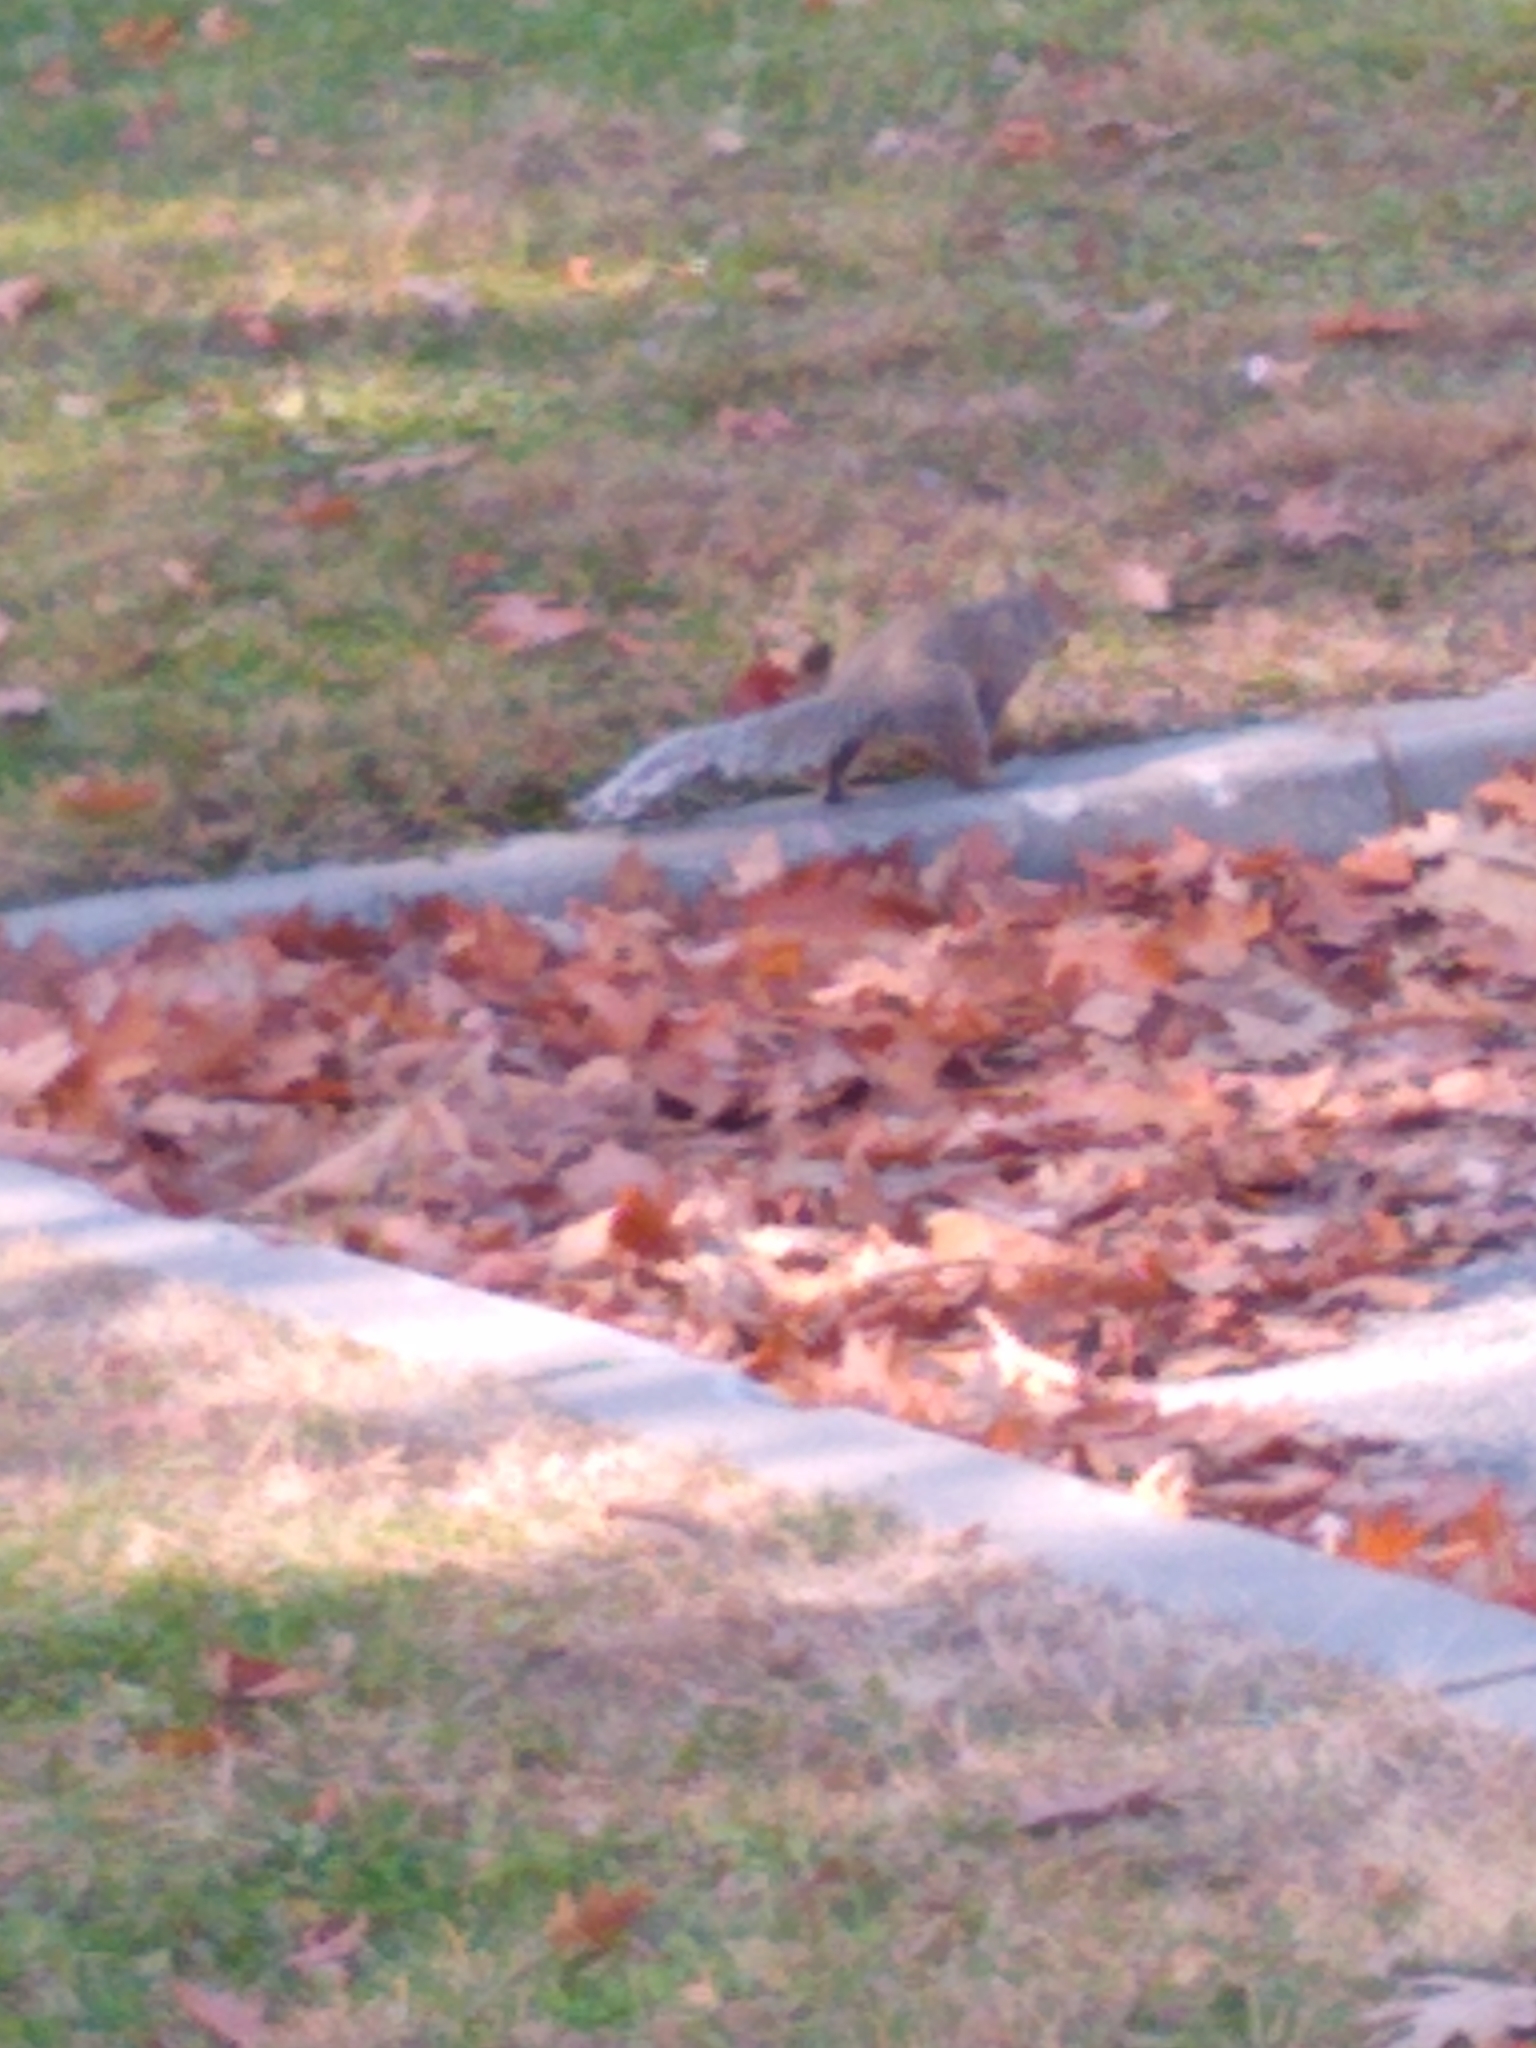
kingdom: Animalia
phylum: Chordata
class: Mammalia
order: Rodentia
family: Sciuridae
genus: Sciurus
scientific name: Sciurus carolinensis
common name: Eastern gray squirrel
